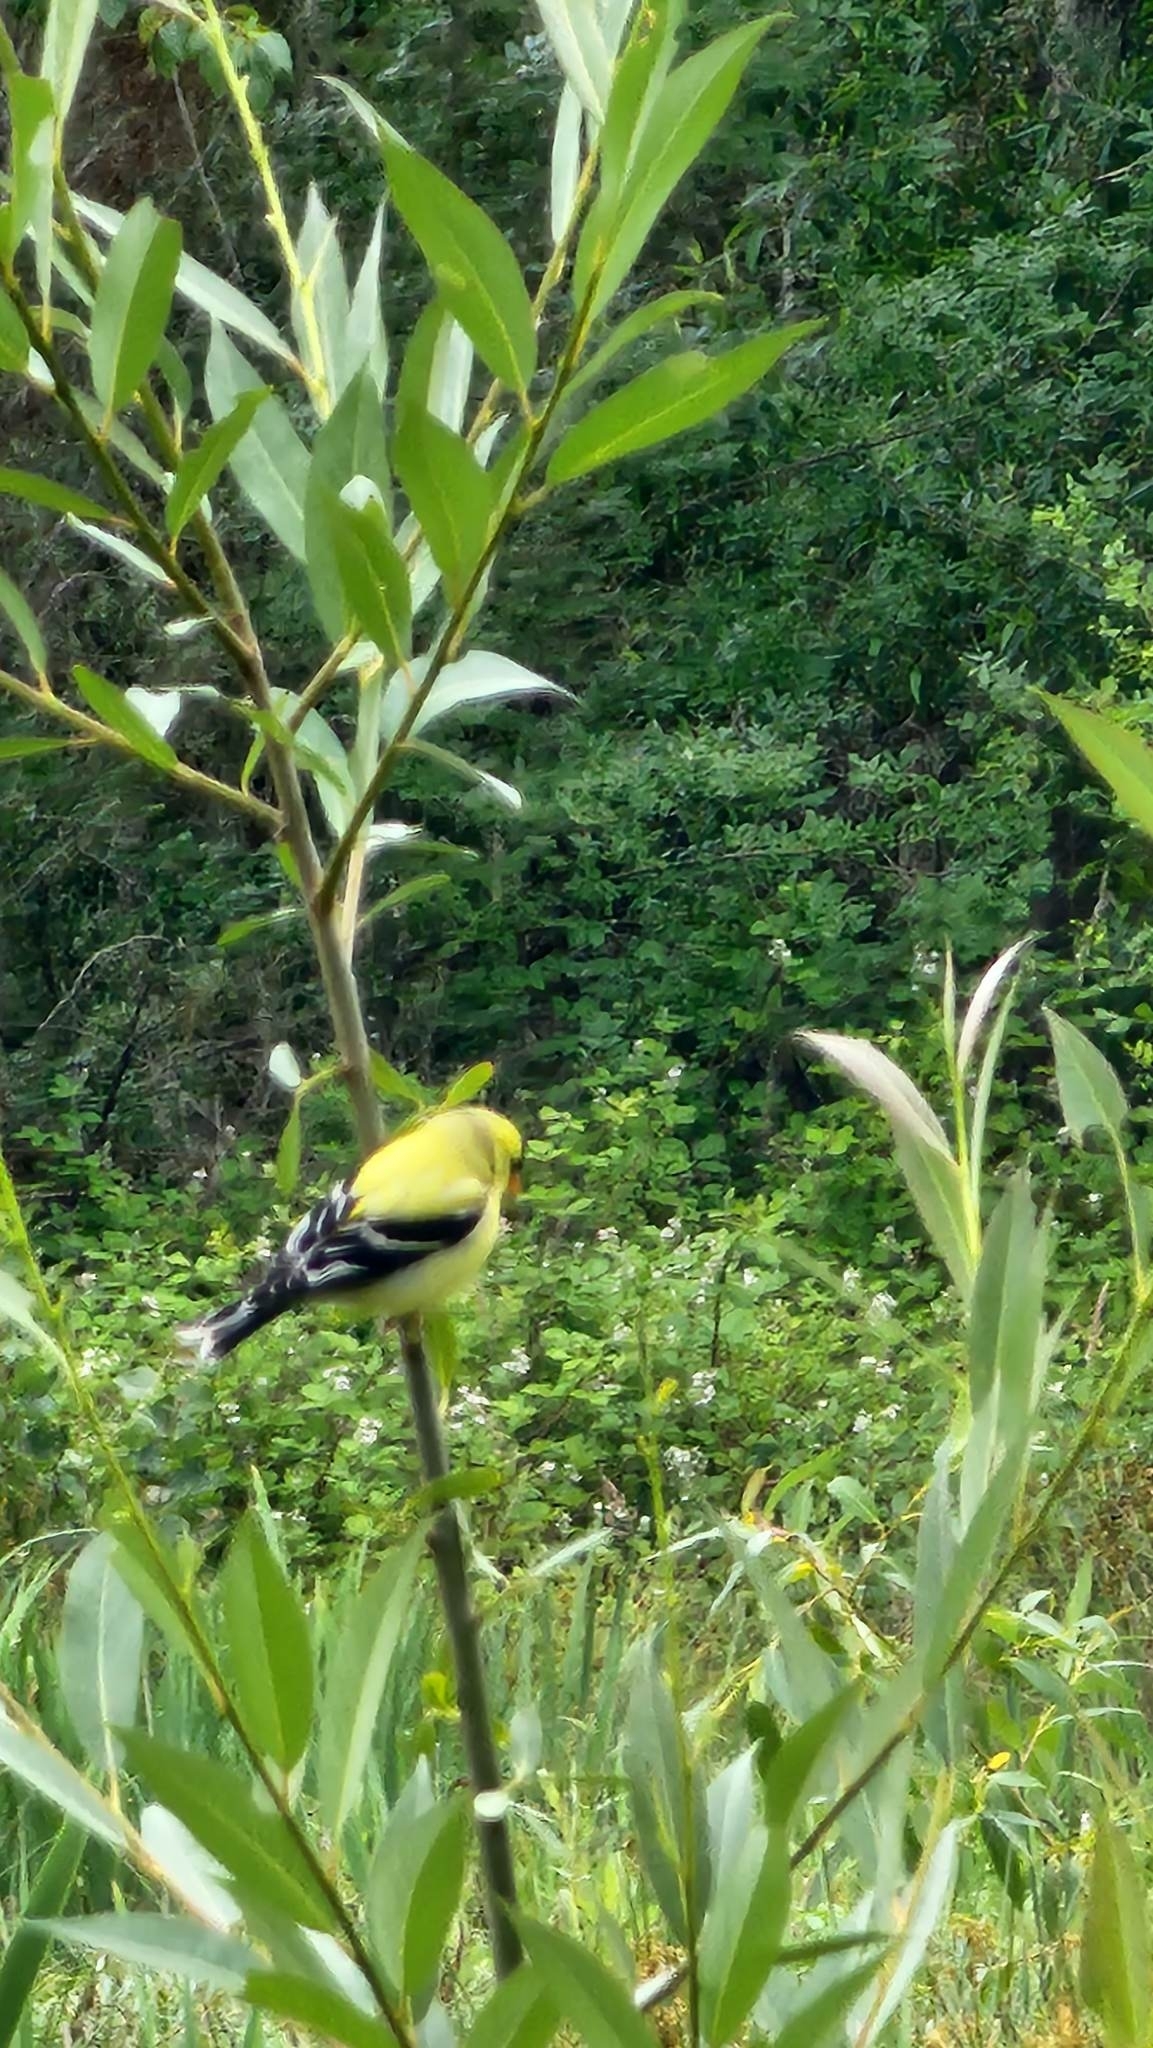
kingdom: Animalia
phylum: Chordata
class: Aves
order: Passeriformes
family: Fringillidae
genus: Spinus
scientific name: Spinus tristis
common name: American goldfinch
